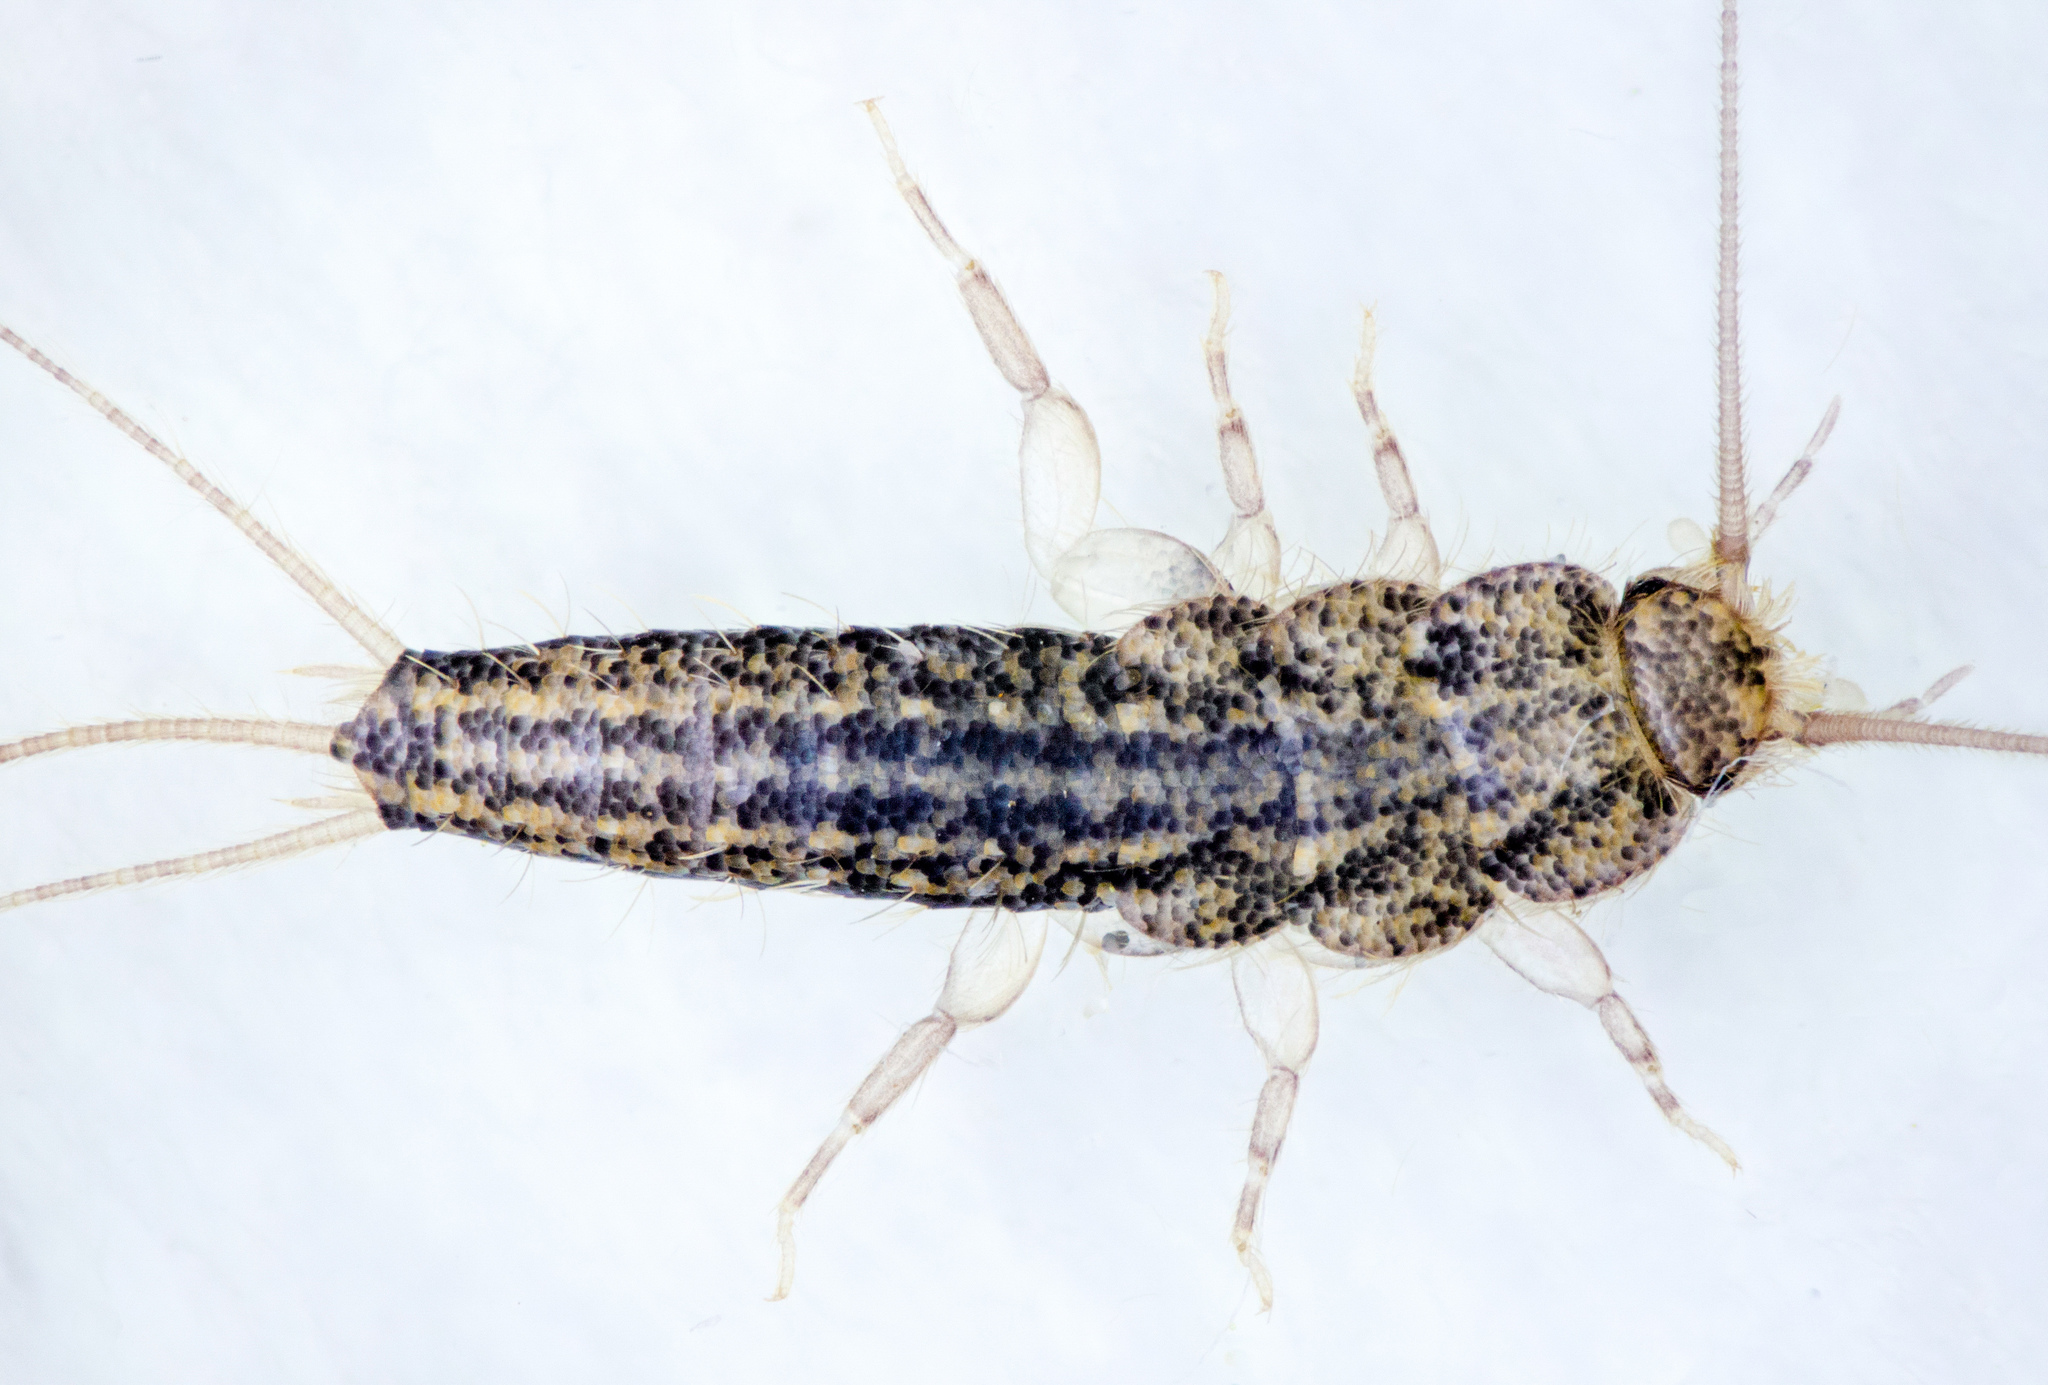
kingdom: Animalia
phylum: Arthropoda
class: Insecta
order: Zygentoma
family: Lepismatidae
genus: Ctenolepisma
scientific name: Ctenolepisma lineata
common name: Four-lined silverfish
